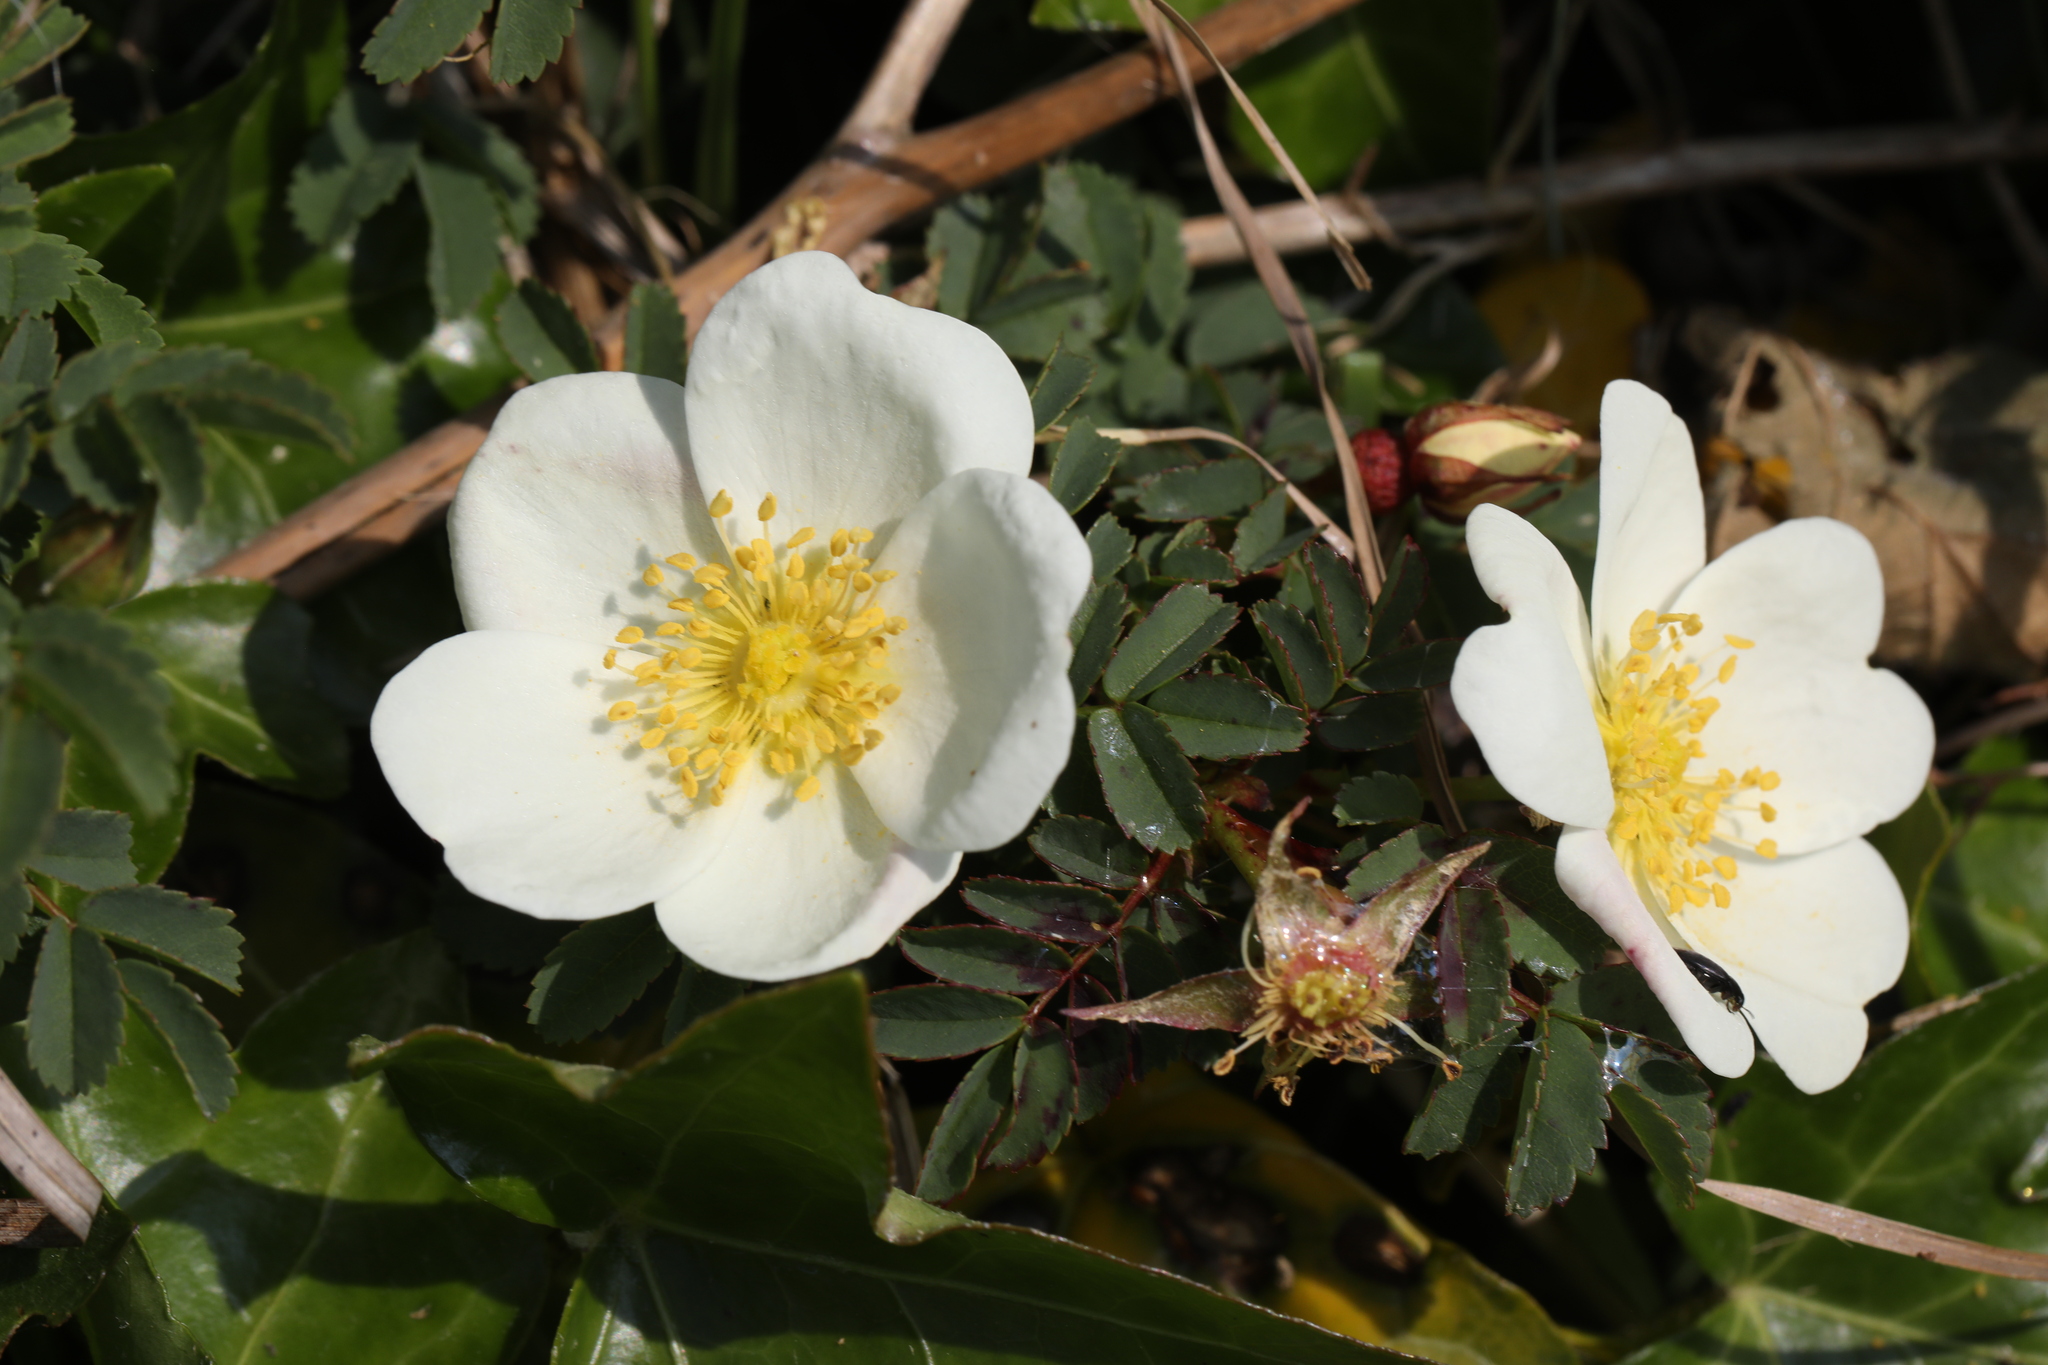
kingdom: Plantae
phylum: Tracheophyta
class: Magnoliopsida
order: Rosales
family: Rosaceae
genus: Rosa
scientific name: Rosa spinosissima
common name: Burnet rose
